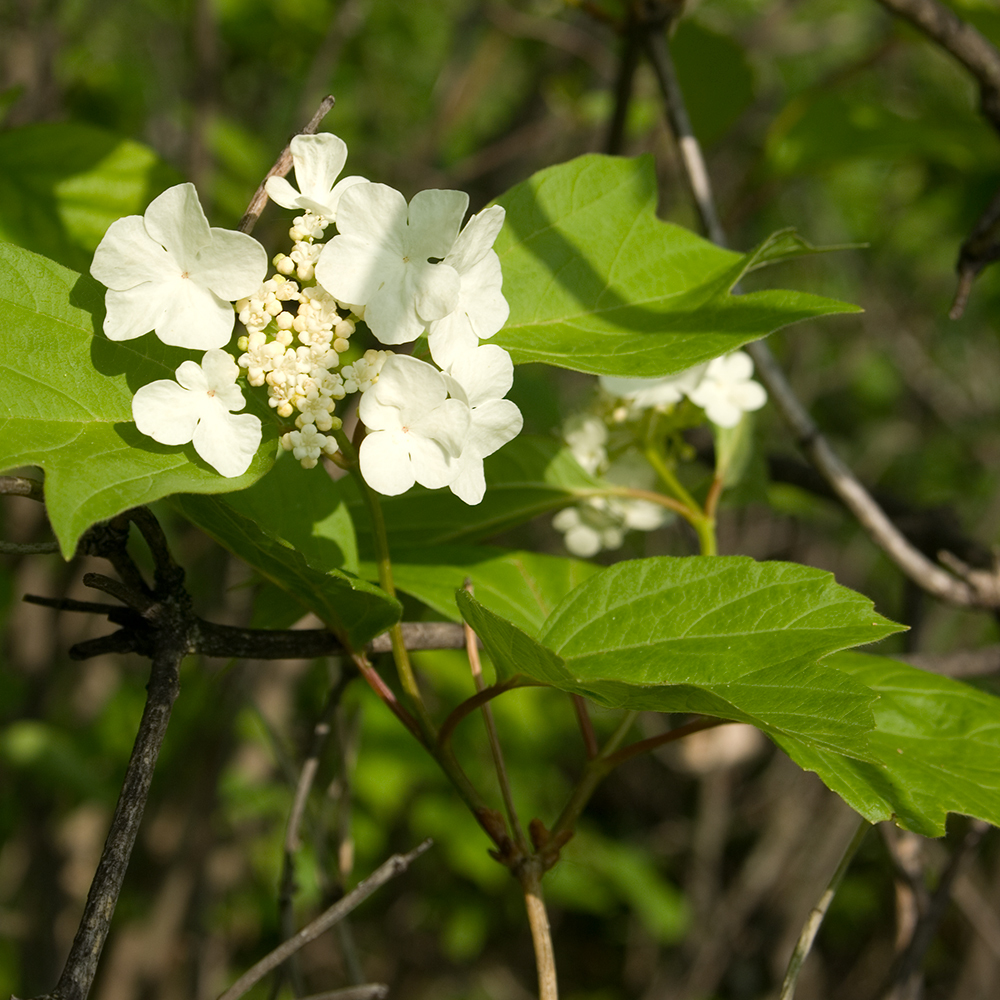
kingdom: Plantae
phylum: Tracheophyta
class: Magnoliopsida
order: Dipsacales
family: Viburnaceae
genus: Viburnum
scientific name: Viburnum trilobum
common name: American cranberrybush
